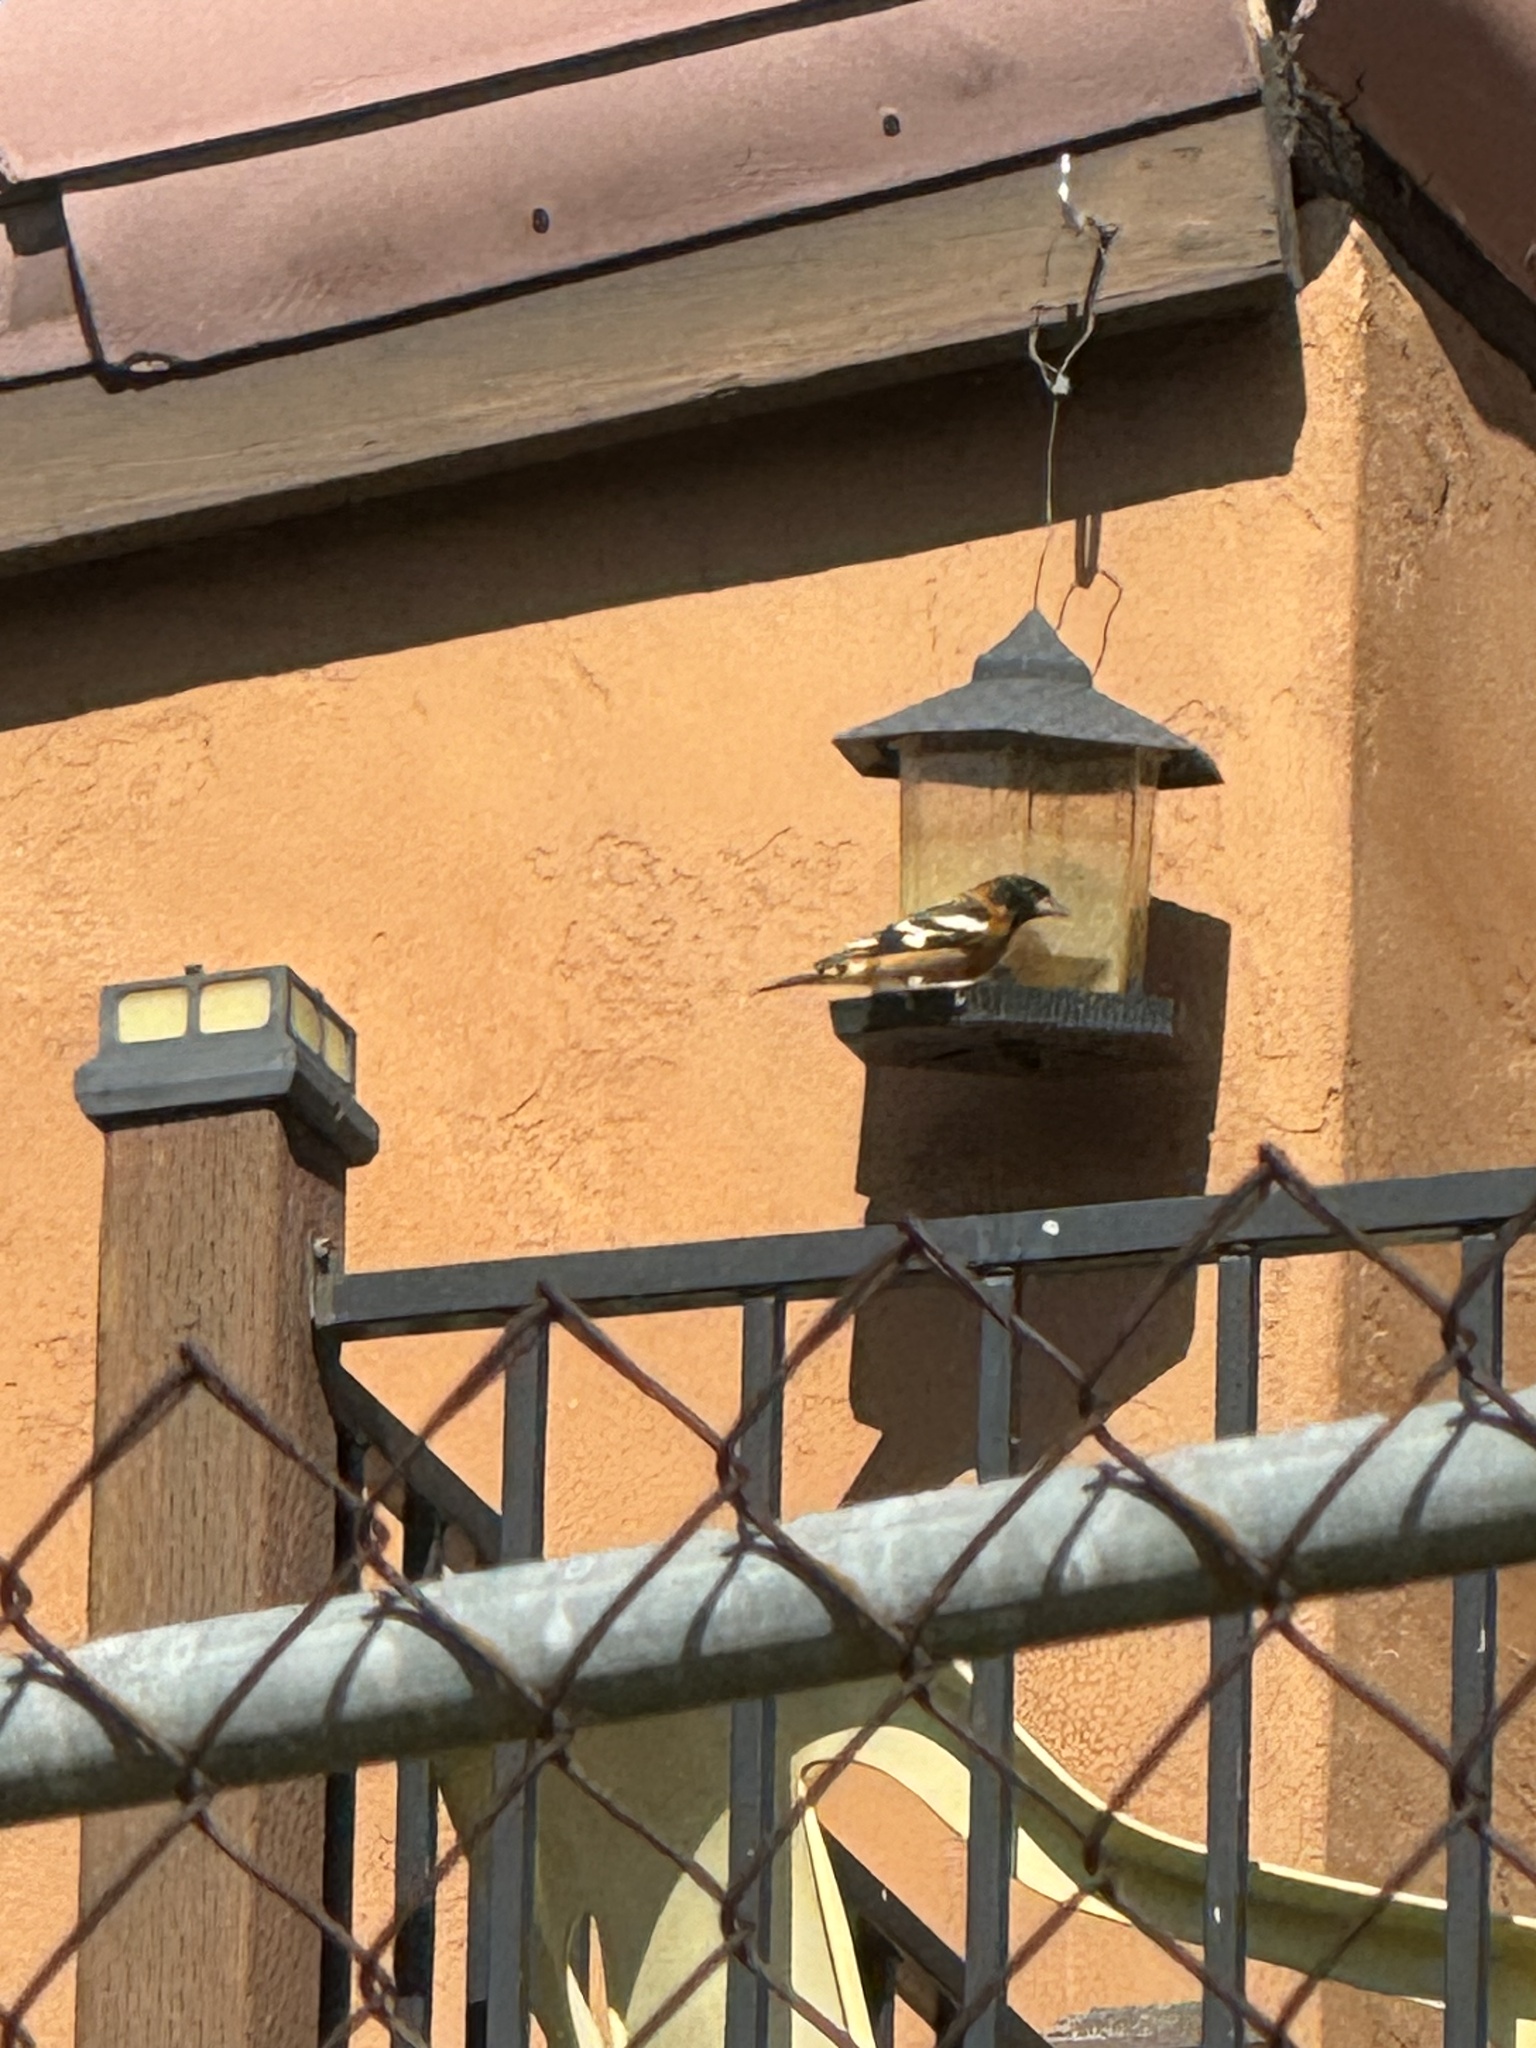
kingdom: Animalia
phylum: Chordata
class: Aves
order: Passeriformes
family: Cardinalidae
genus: Pheucticus
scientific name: Pheucticus melanocephalus
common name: Black-headed grosbeak
